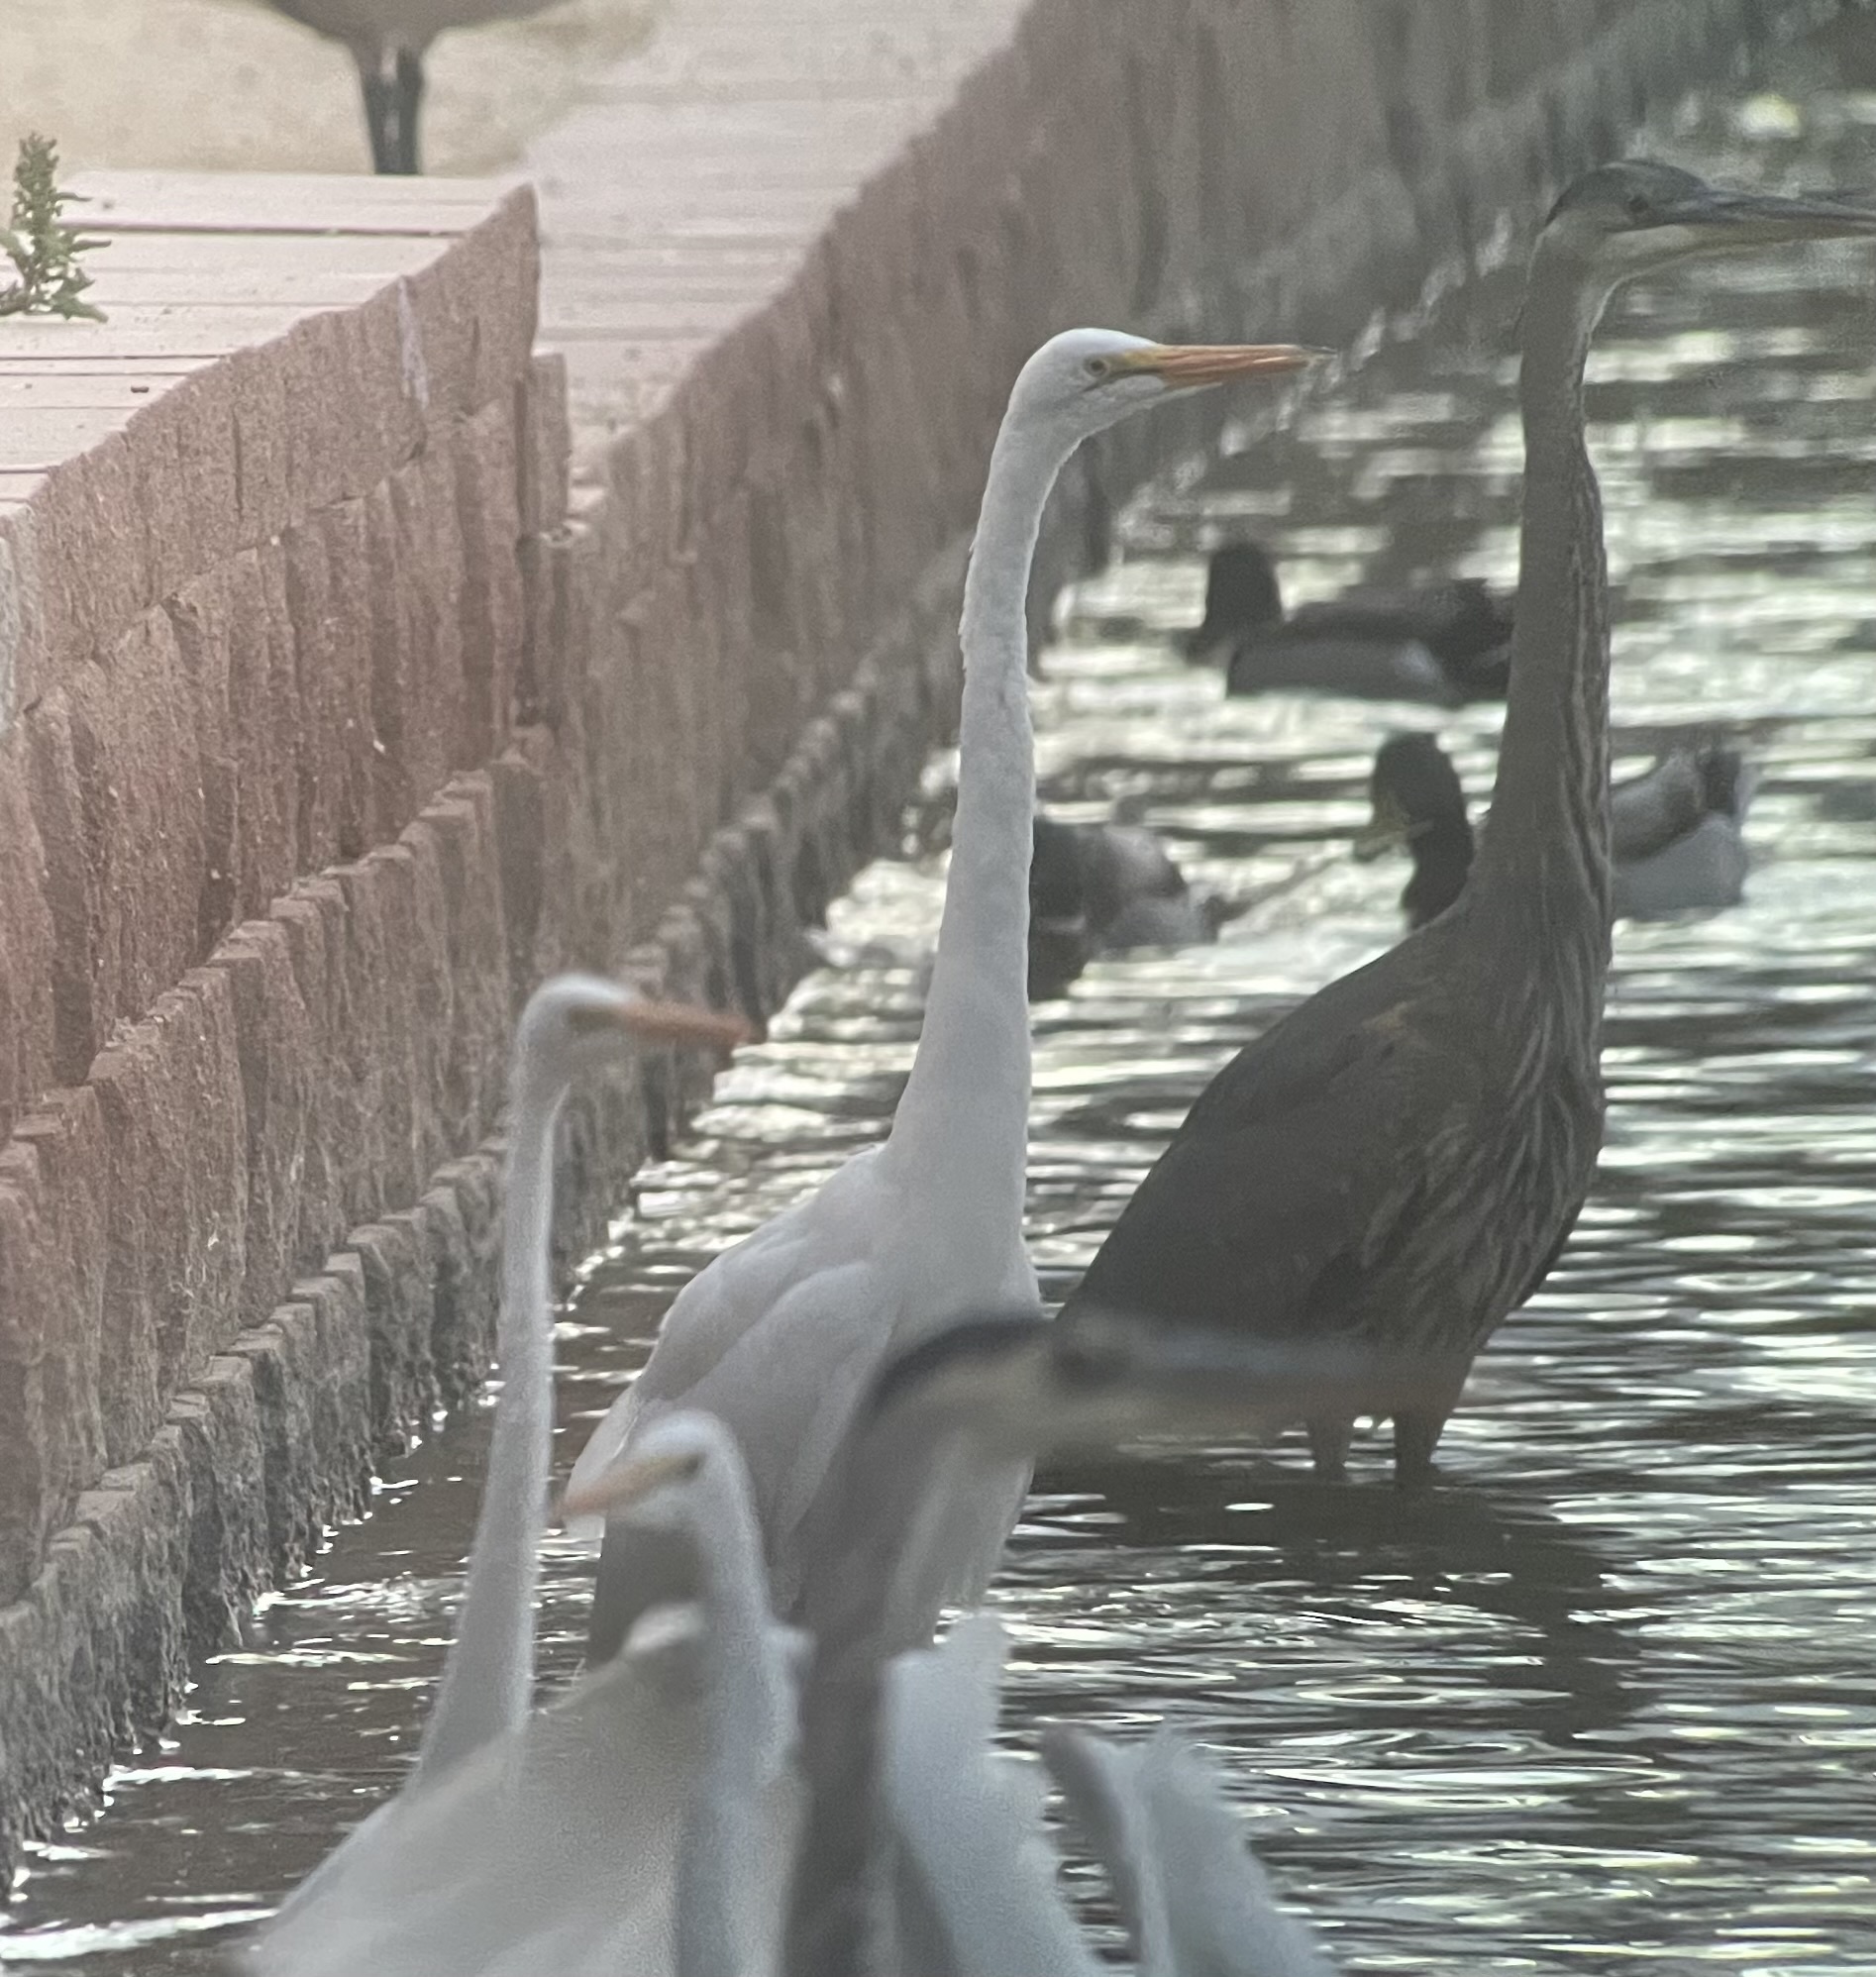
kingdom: Animalia
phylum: Chordata
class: Aves
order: Pelecaniformes
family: Ardeidae
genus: Ardea
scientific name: Ardea alba
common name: Great egret
